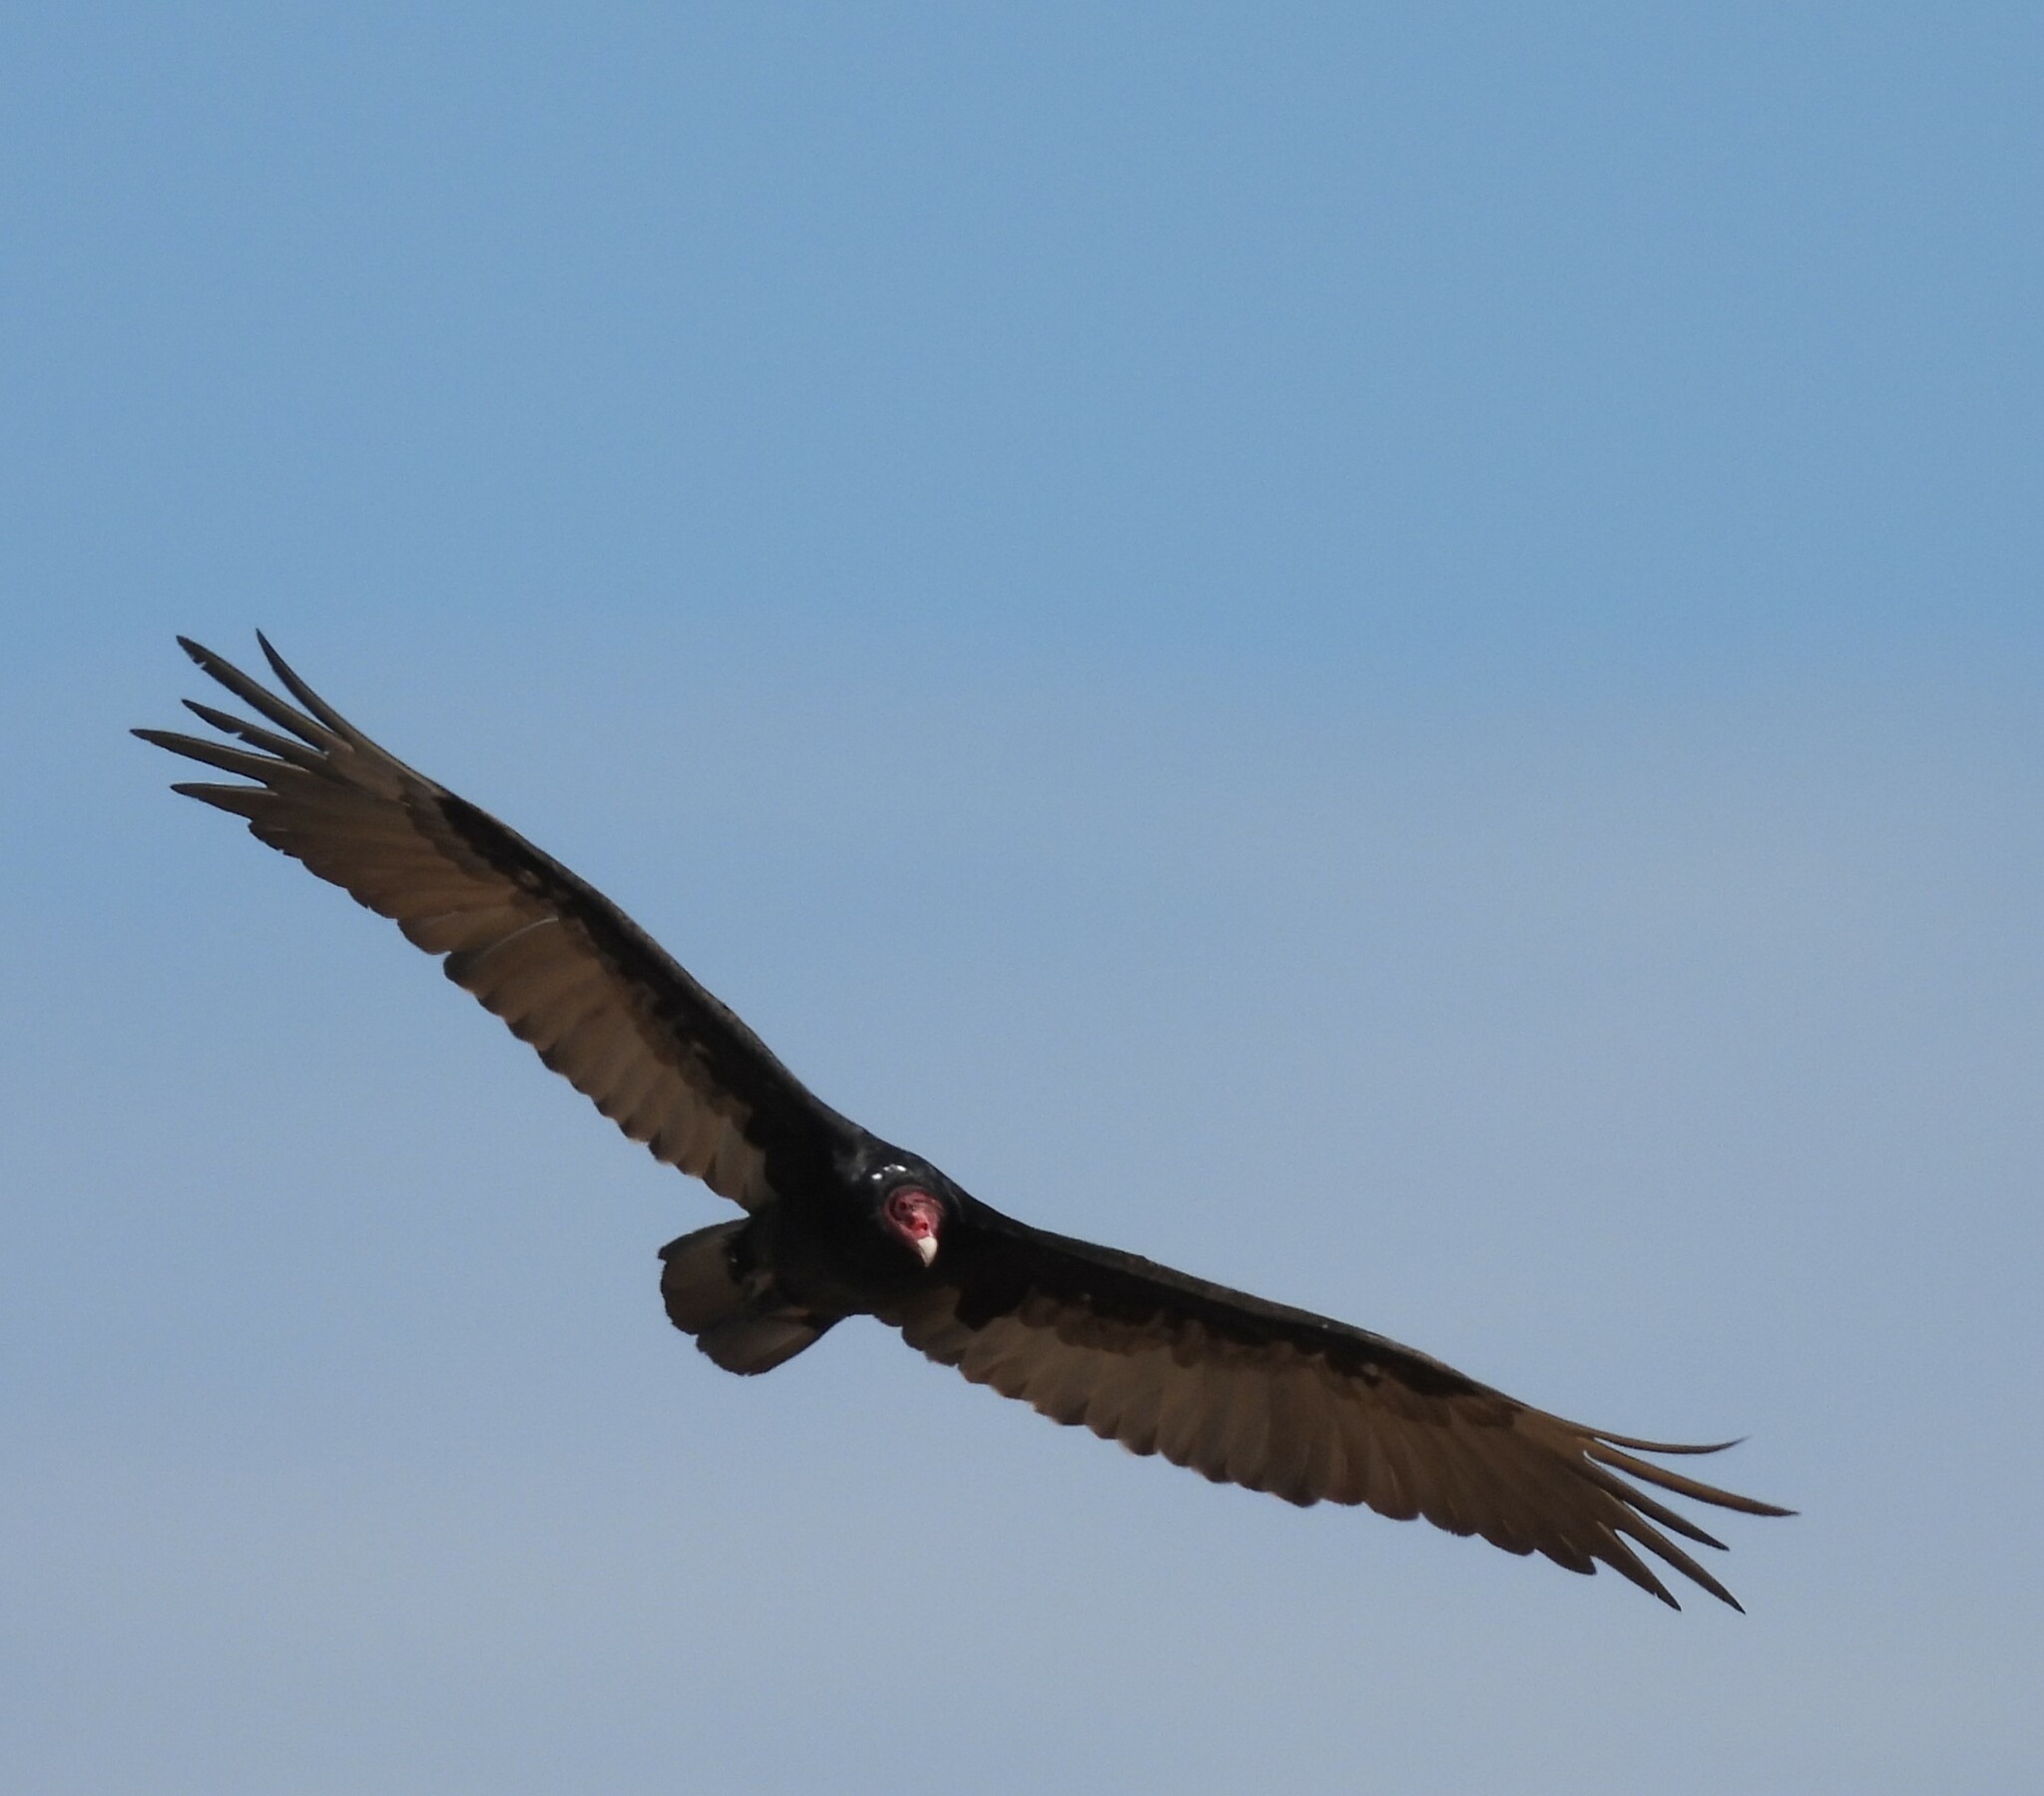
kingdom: Animalia
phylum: Chordata
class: Aves
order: Accipitriformes
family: Cathartidae
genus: Cathartes
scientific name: Cathartes aura
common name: Turkey vulture
